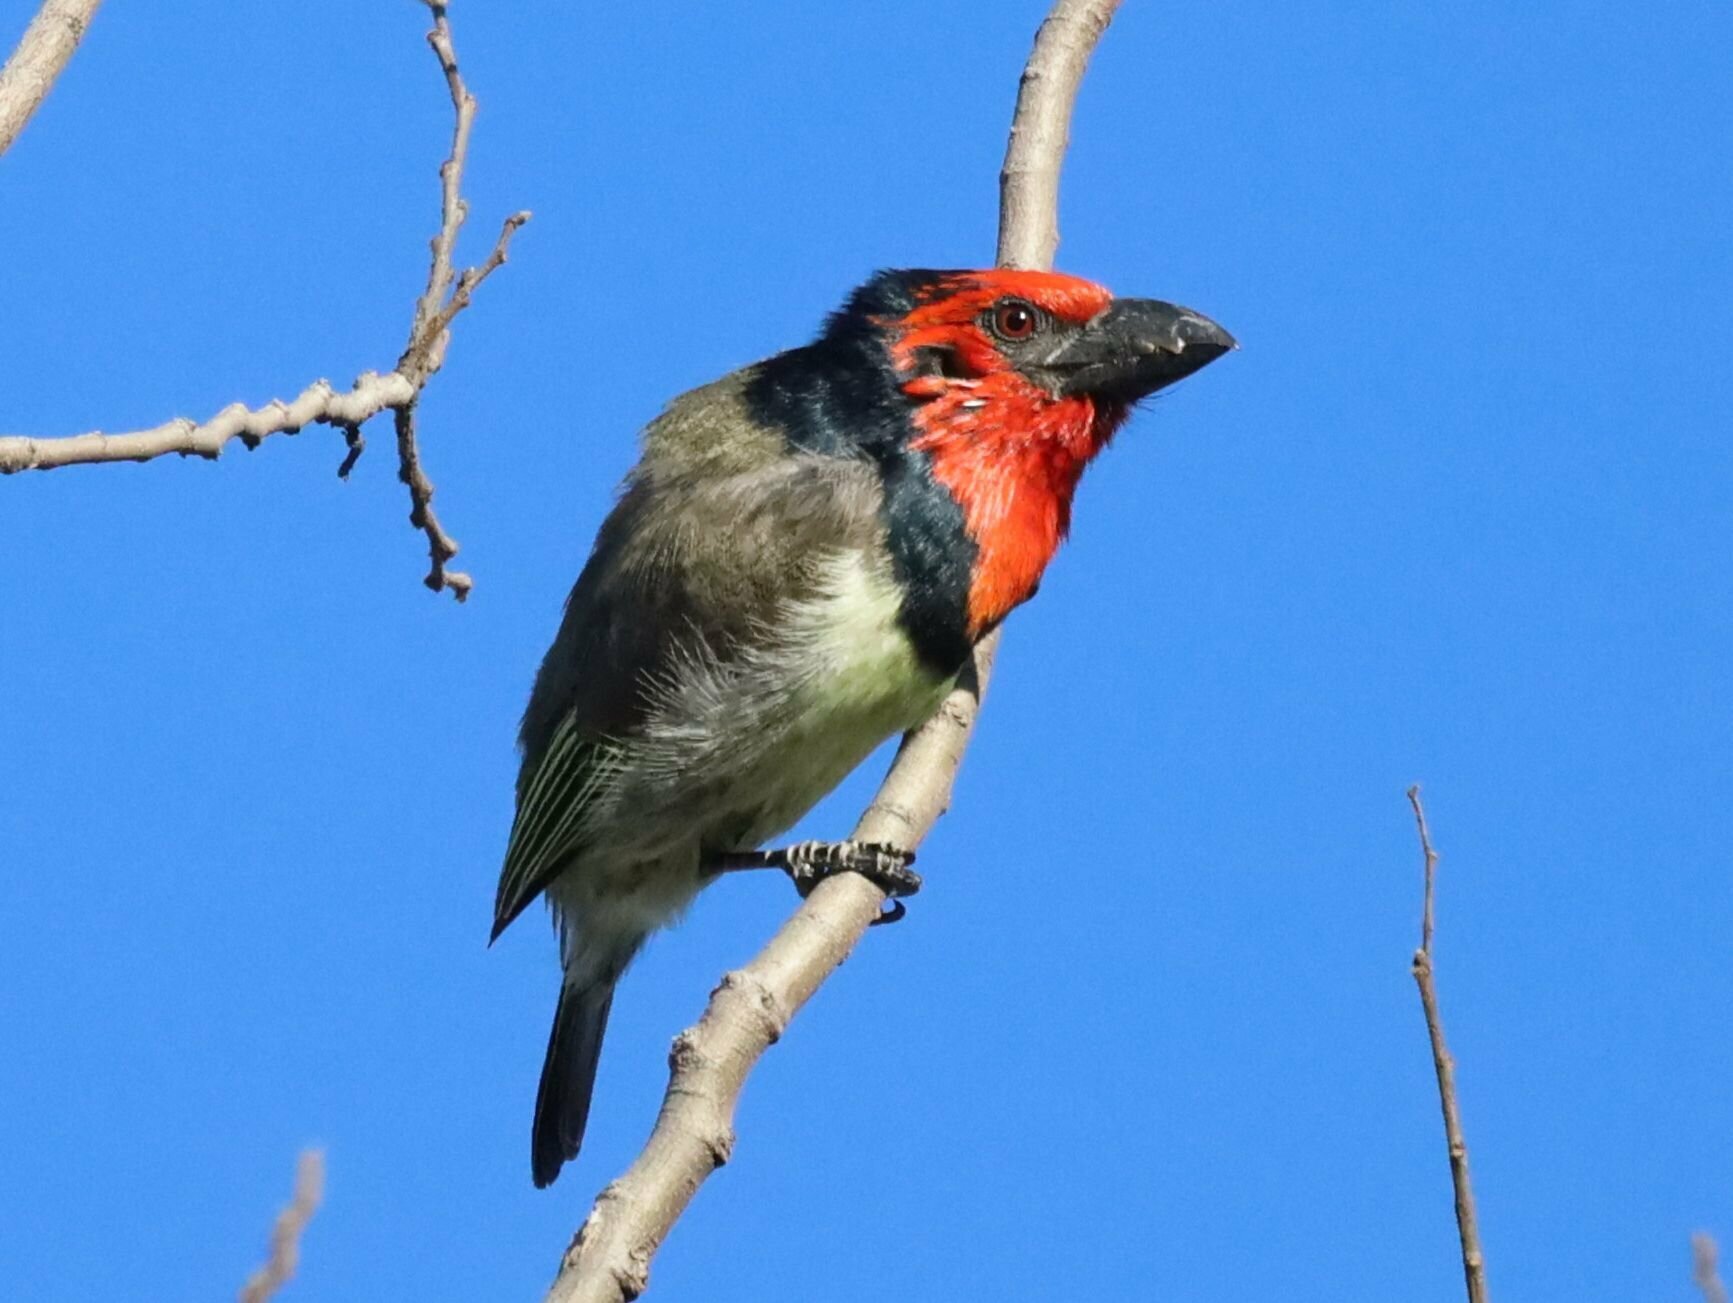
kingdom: Animalia
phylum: Chordata
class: Aves
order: Piciformes
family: Lybiidae
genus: Lybius
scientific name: Lybius torquatus
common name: Black-collared barbet
